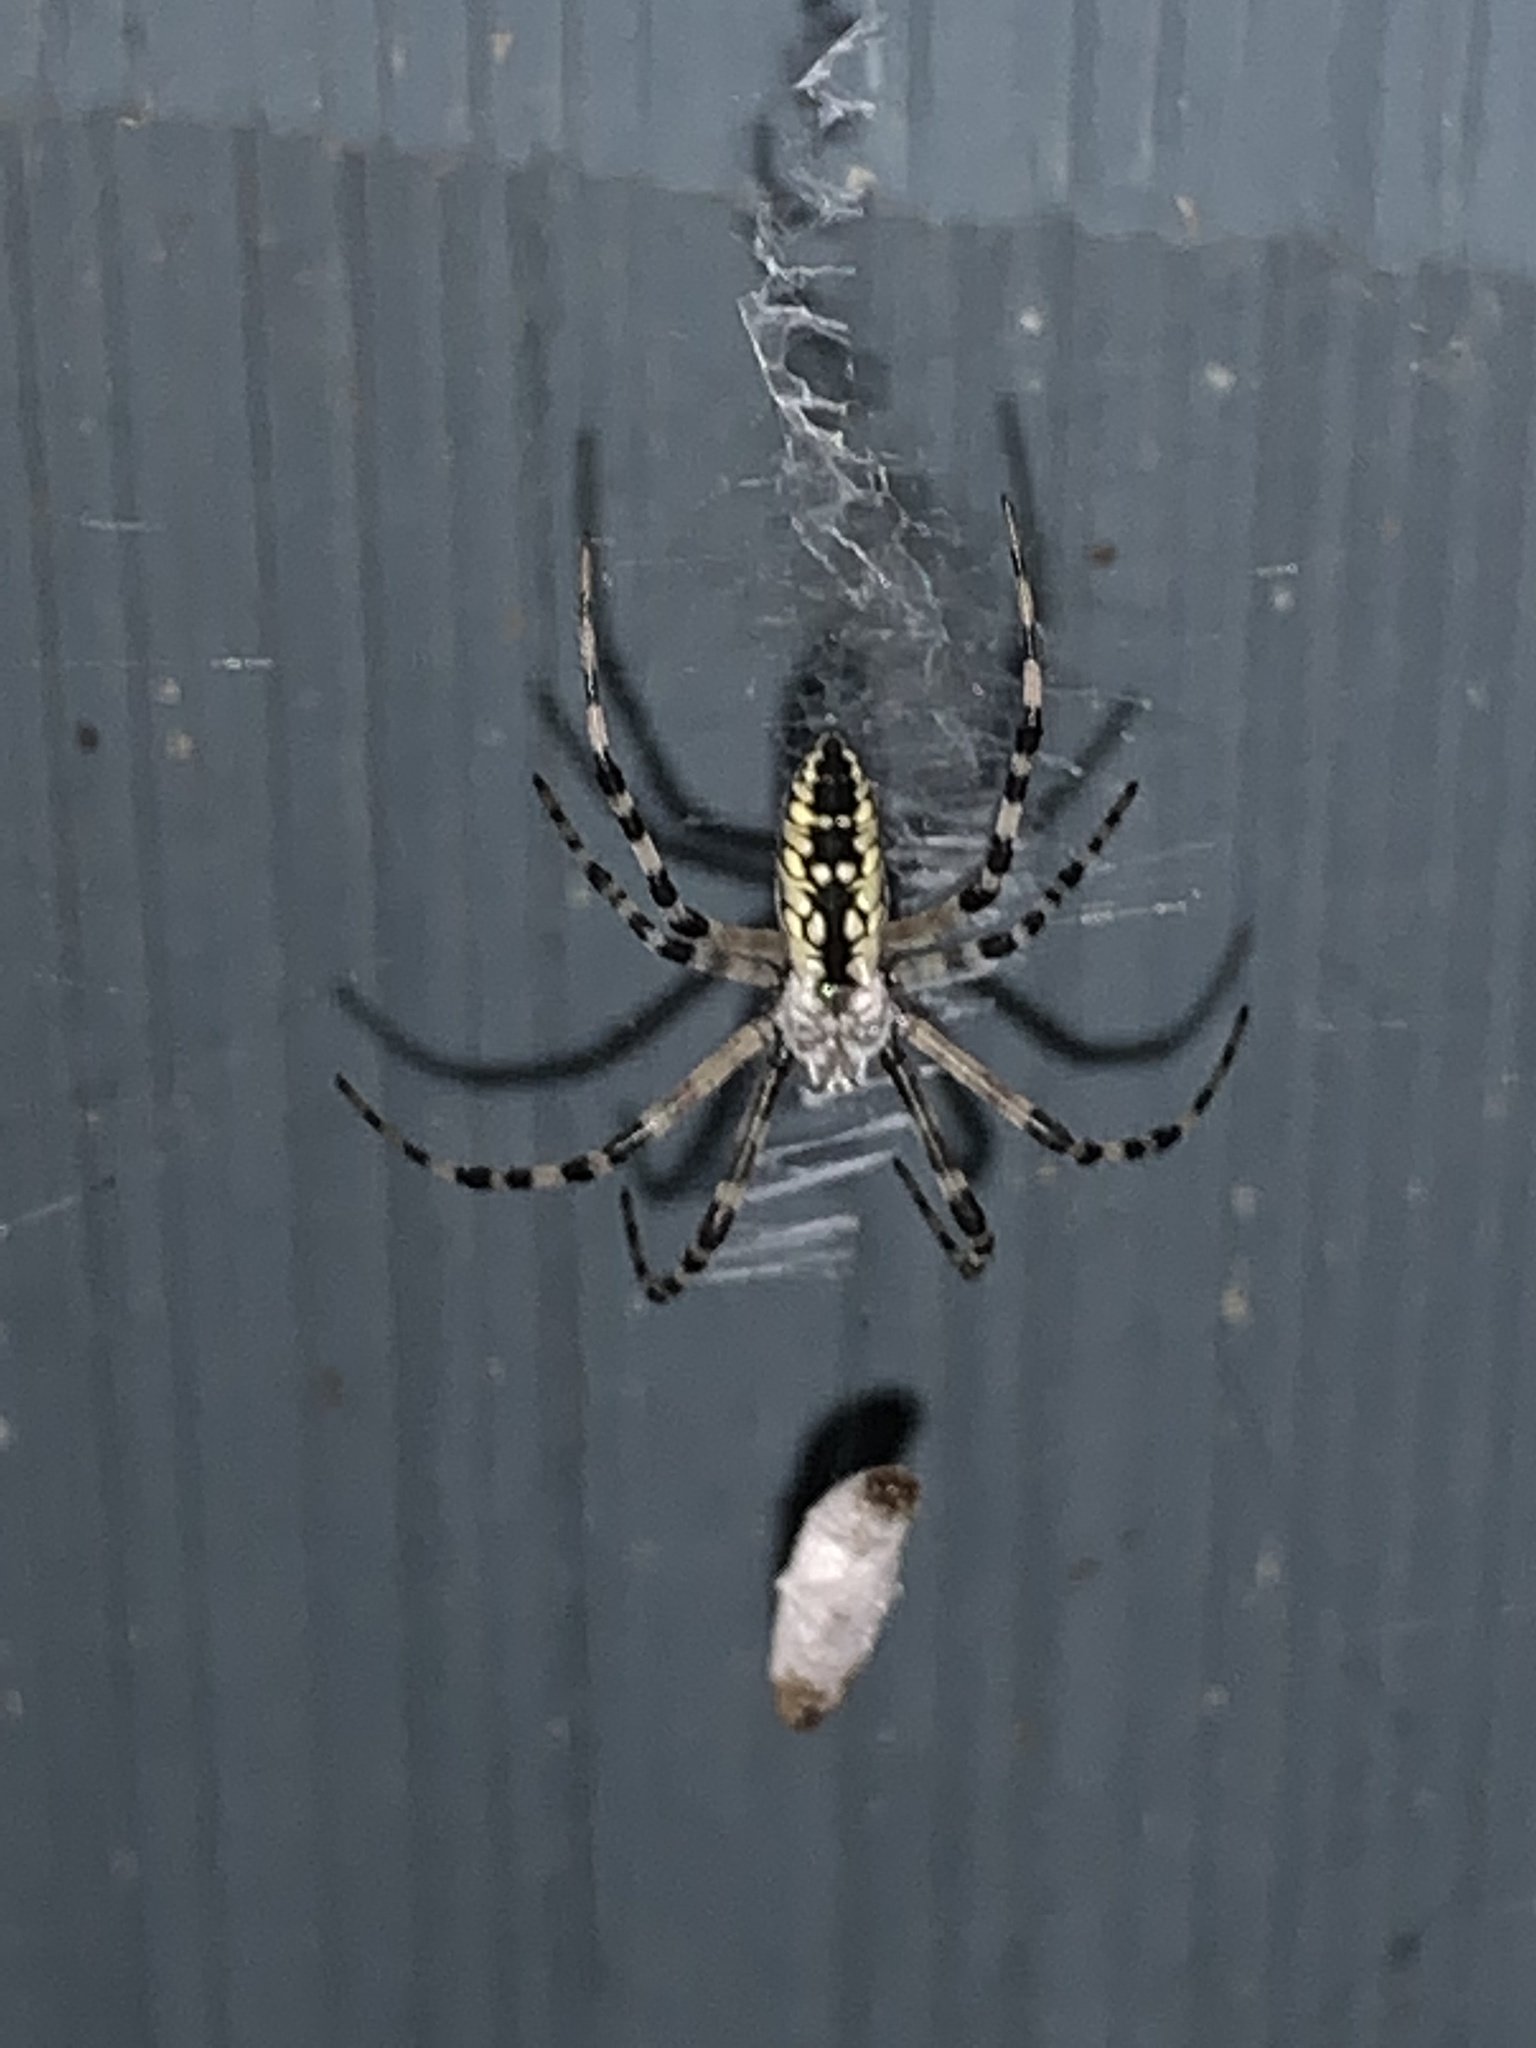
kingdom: Animalia
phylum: Arthropoda
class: Arachnida
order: Araneae
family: Araneidae
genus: Argiope
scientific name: Argiope aurantia
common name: Orb weavers
